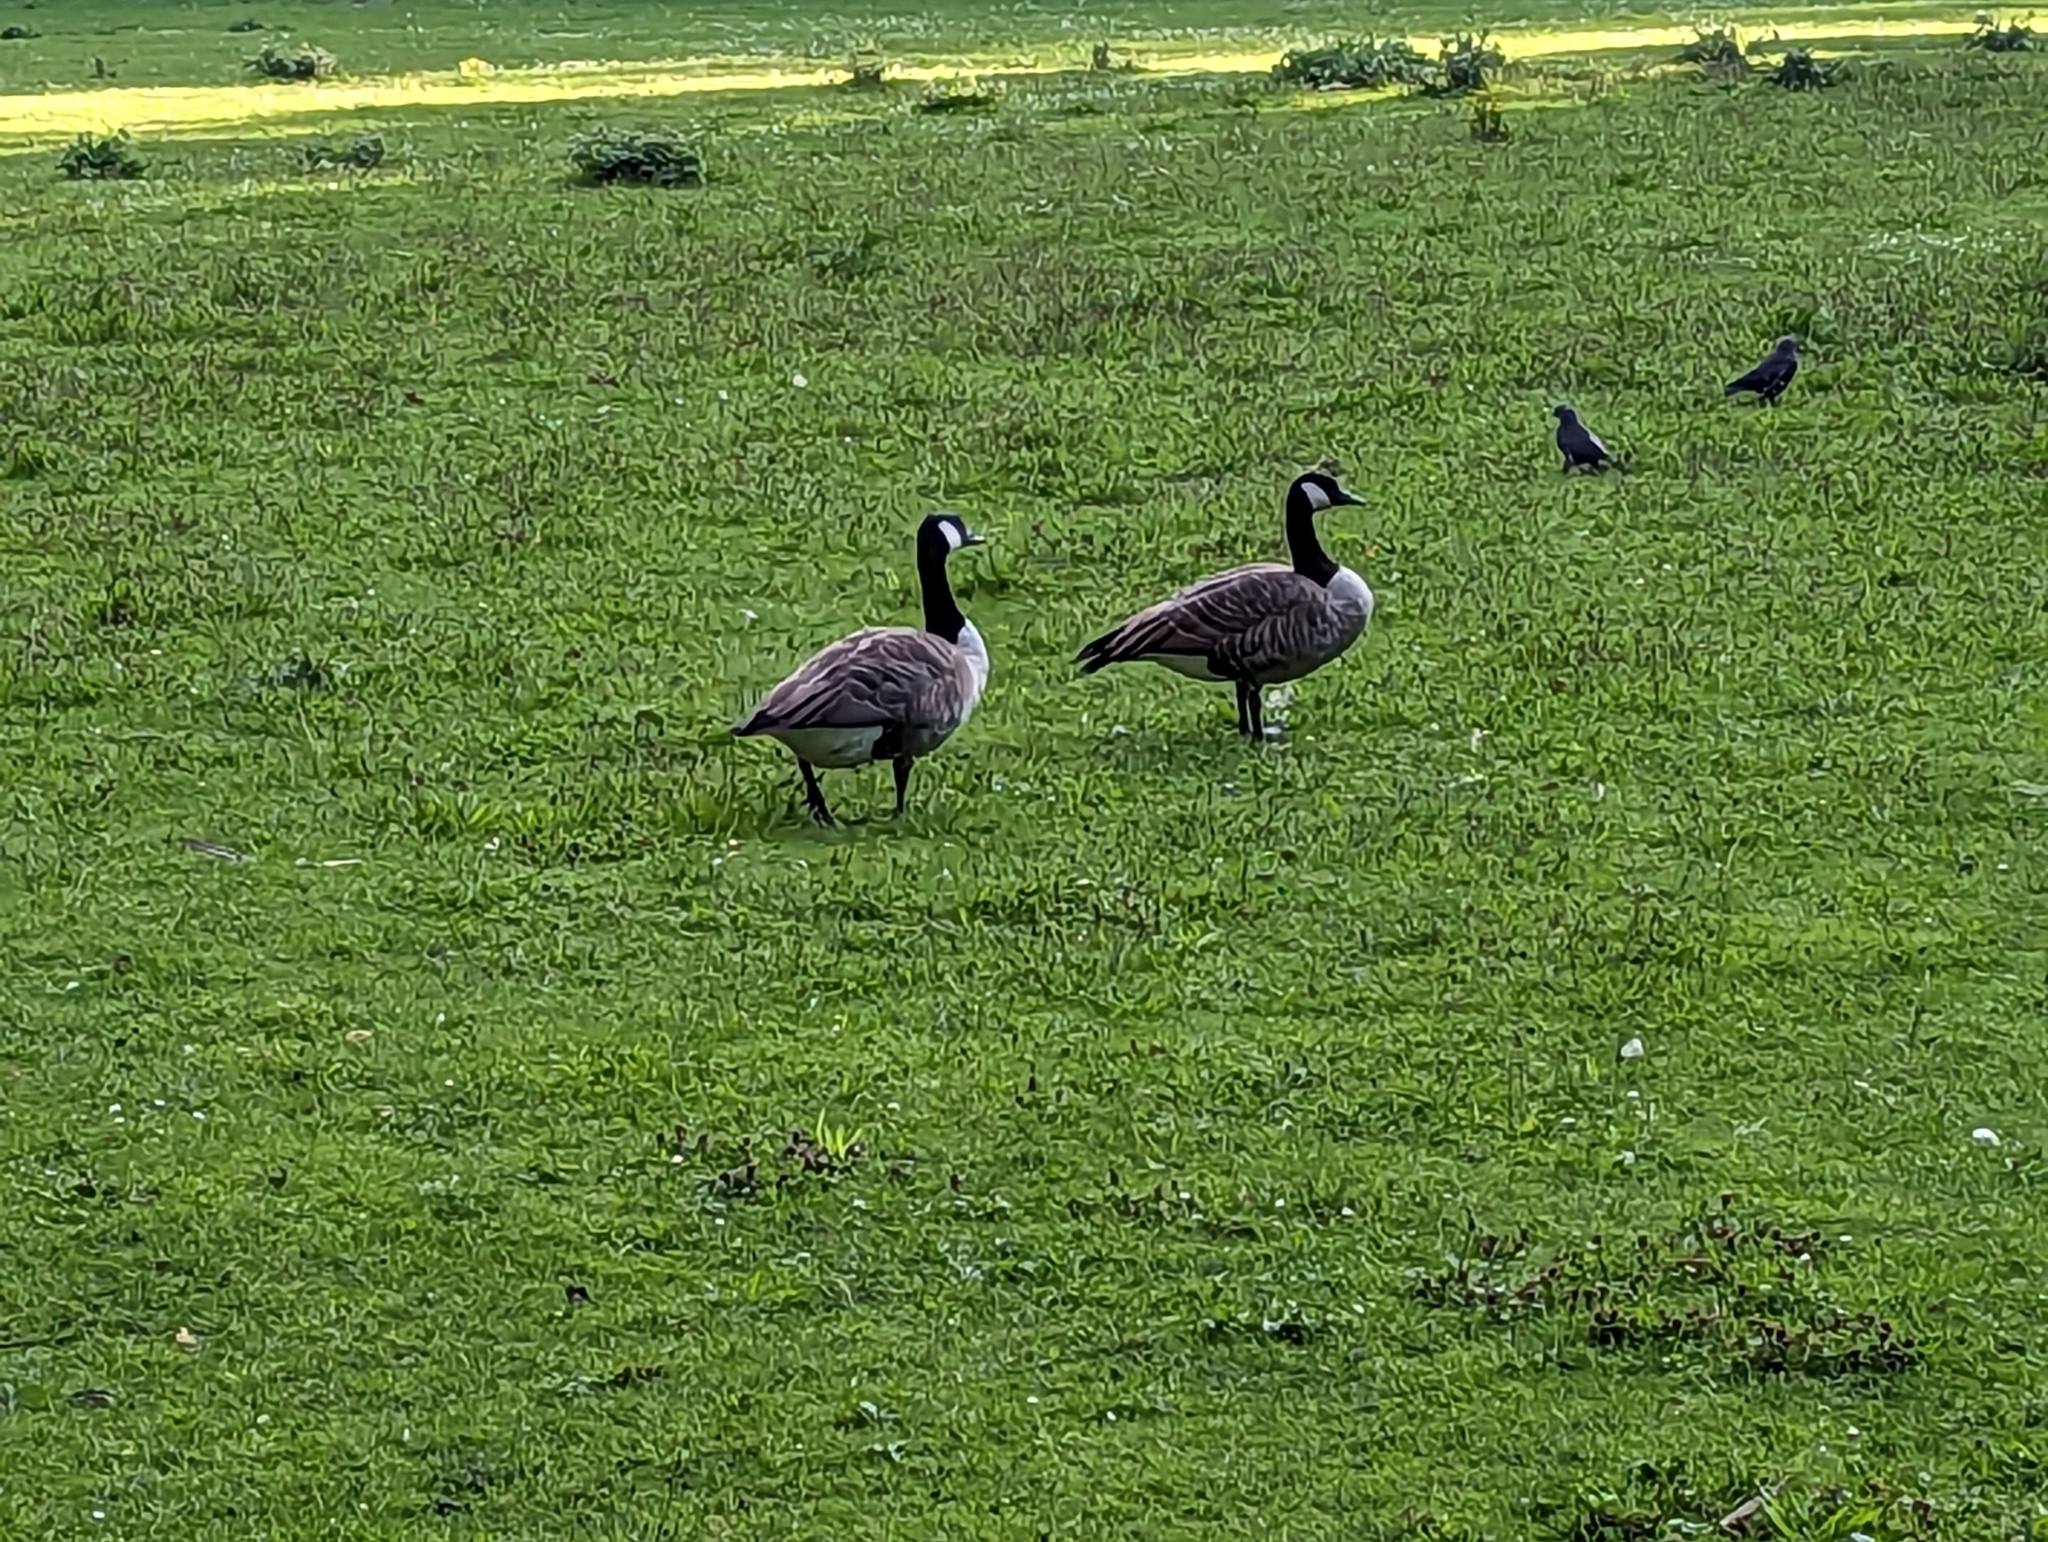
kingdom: Animalia
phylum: Chordata
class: Aves
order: Anseriformes
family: Anatidae
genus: Branta
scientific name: Branta canadensis
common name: Canada goose
